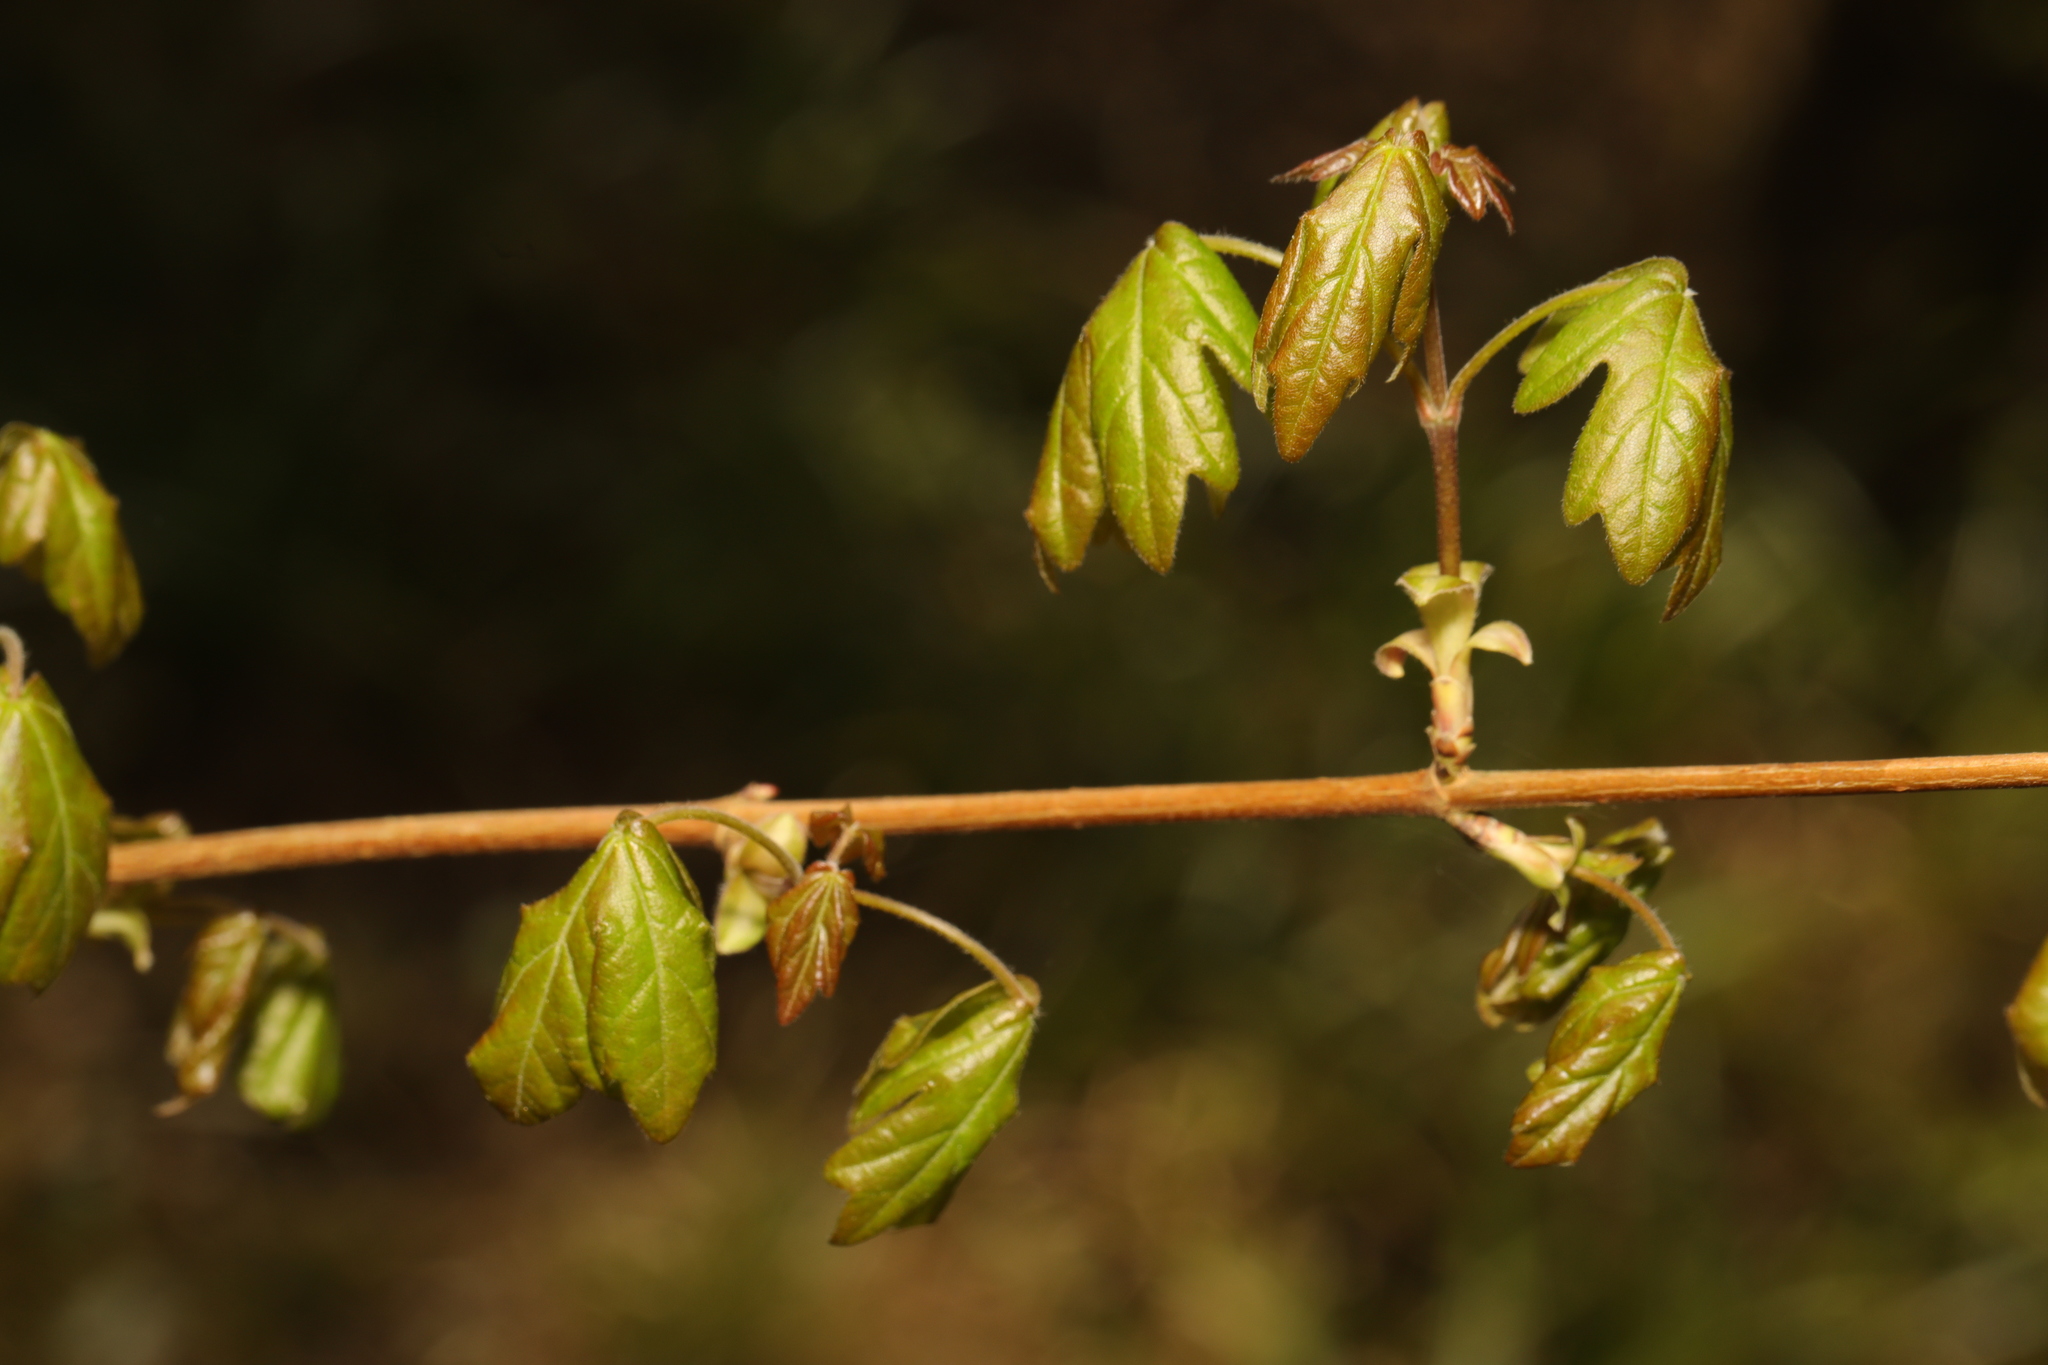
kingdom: Plantae
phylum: Tracheophyta
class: Magnoliopsida
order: Sapindales
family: Sapindaceae
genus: Acer
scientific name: Acer campestre
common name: Field maple
